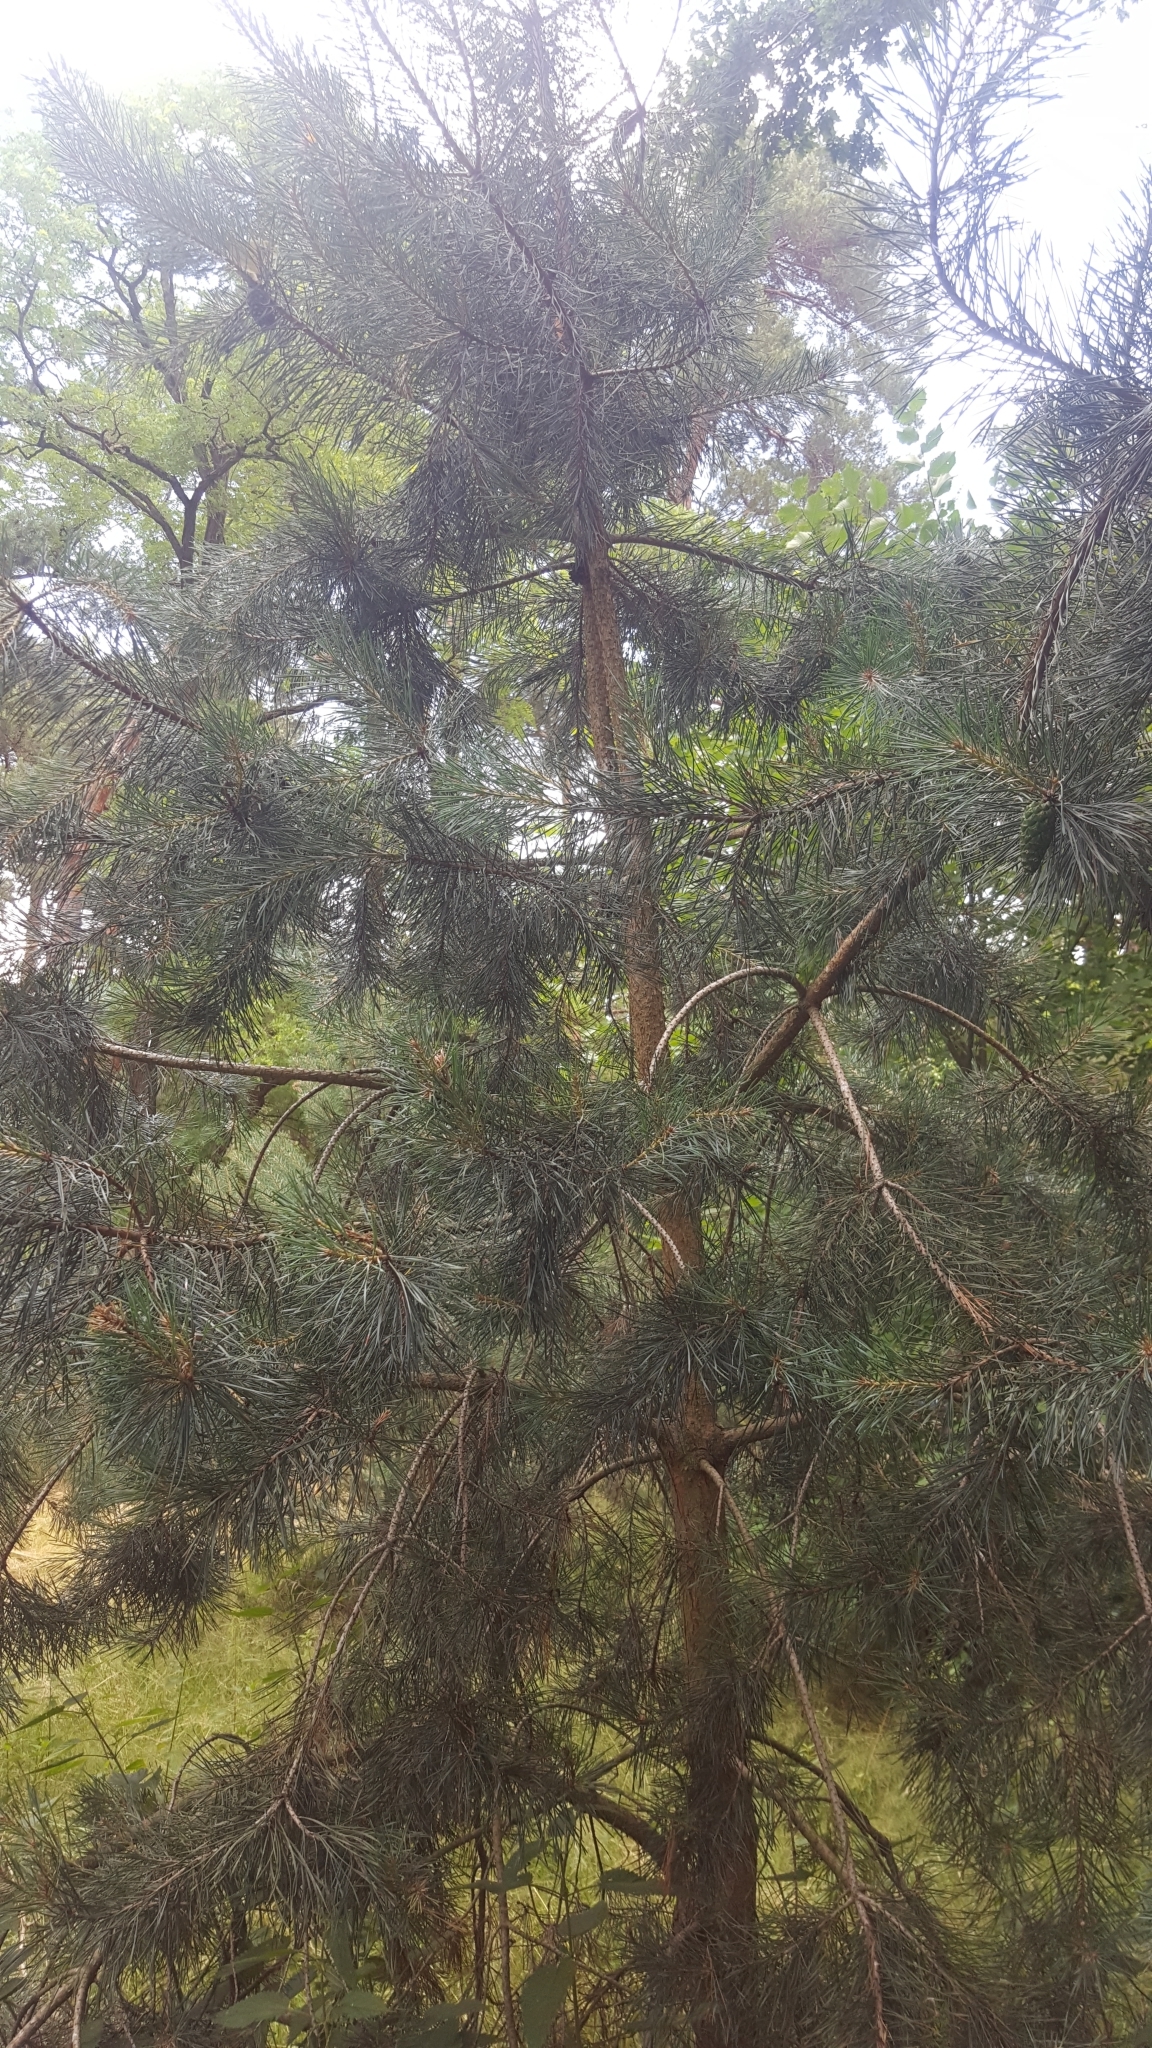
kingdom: Plantae
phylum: Tracheophyta
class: Pinopsida
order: Pinales
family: Pinaceae
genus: Pinus
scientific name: Pinus sylvestris
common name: Scots pine
